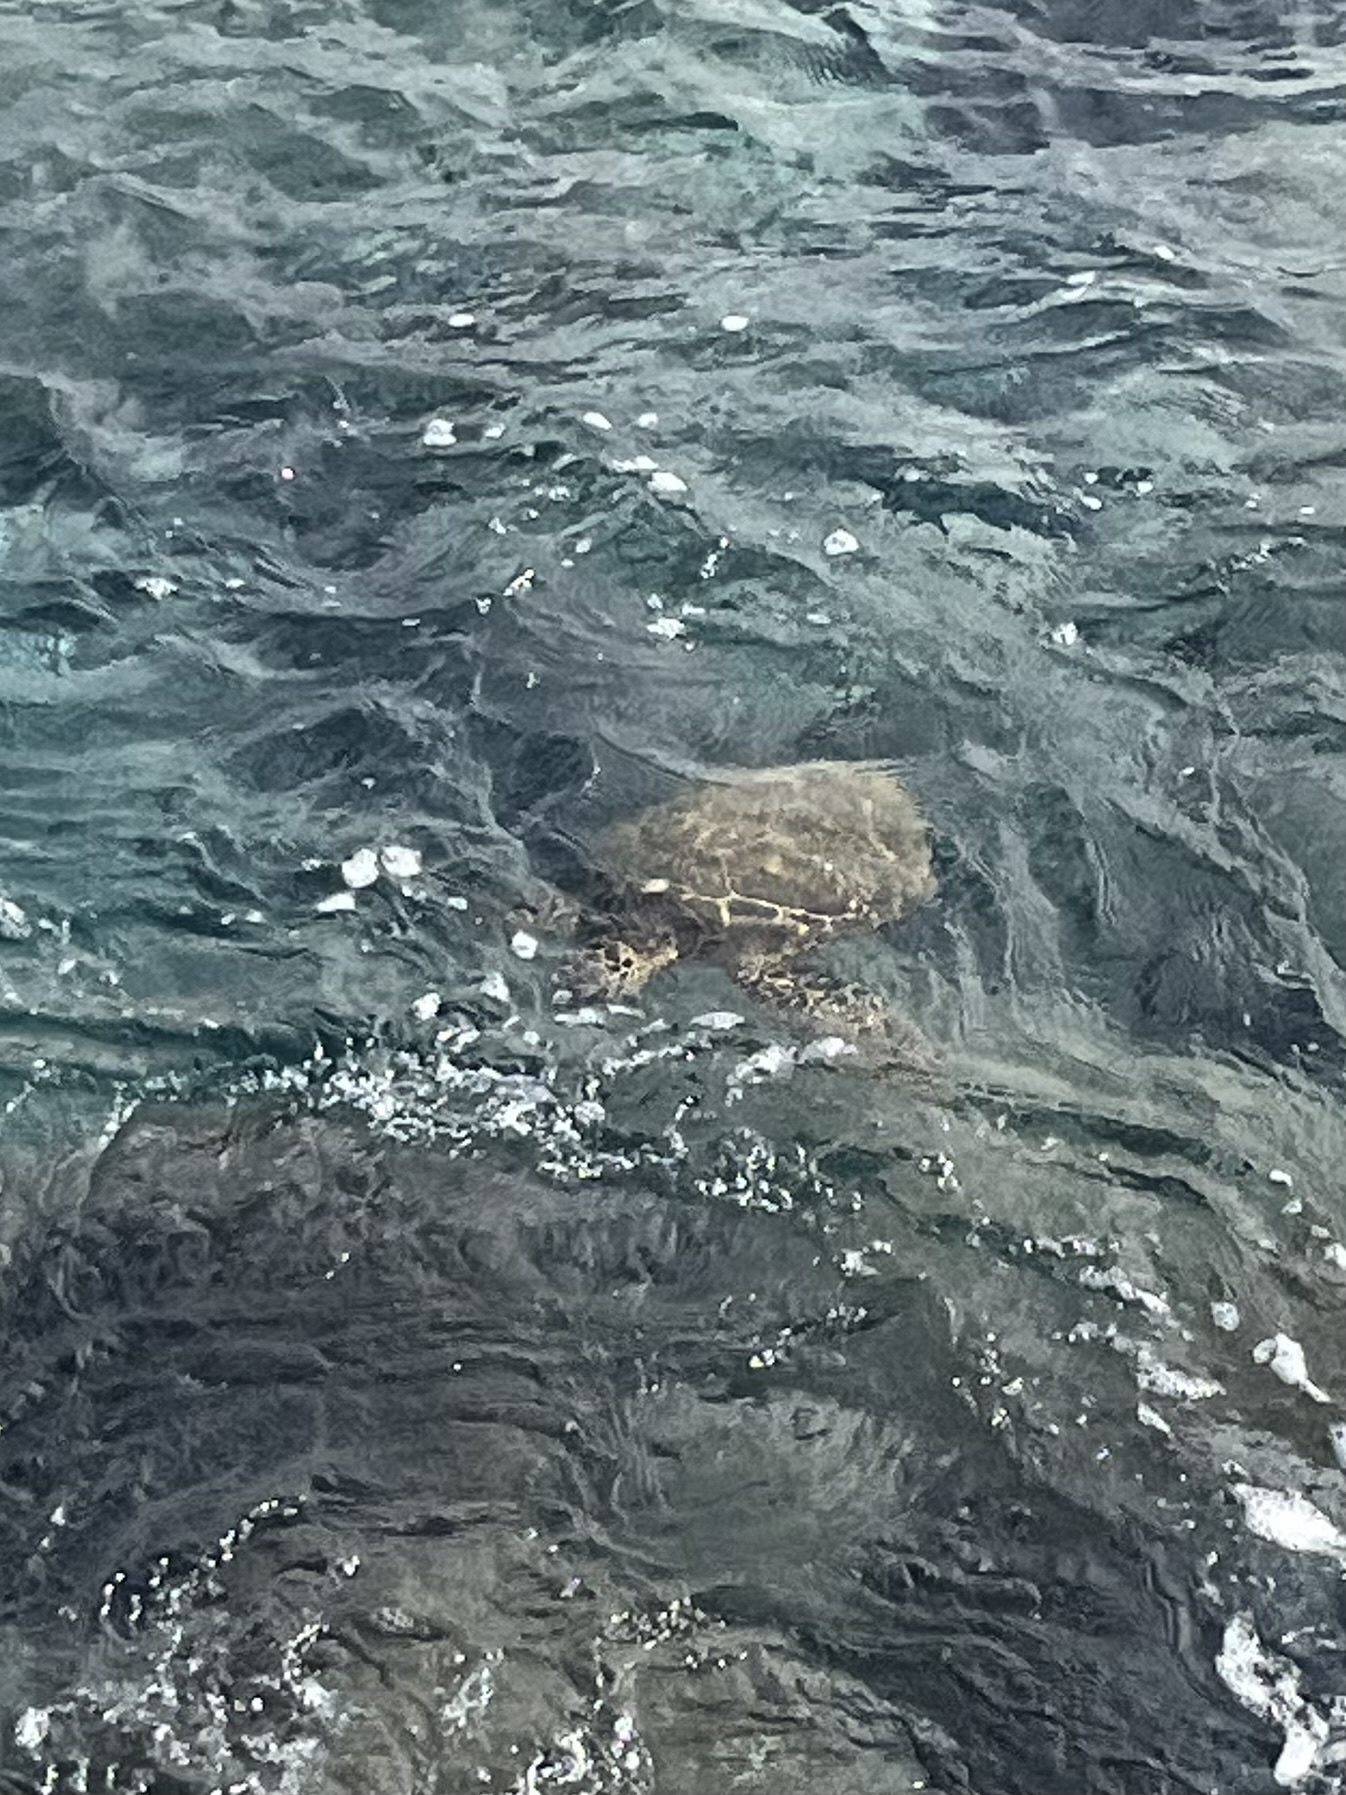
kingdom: Animalia
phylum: Chordata
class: Testudines
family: Cheloniidae
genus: Chelonia
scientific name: Chelonia mydas
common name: Green turtle
